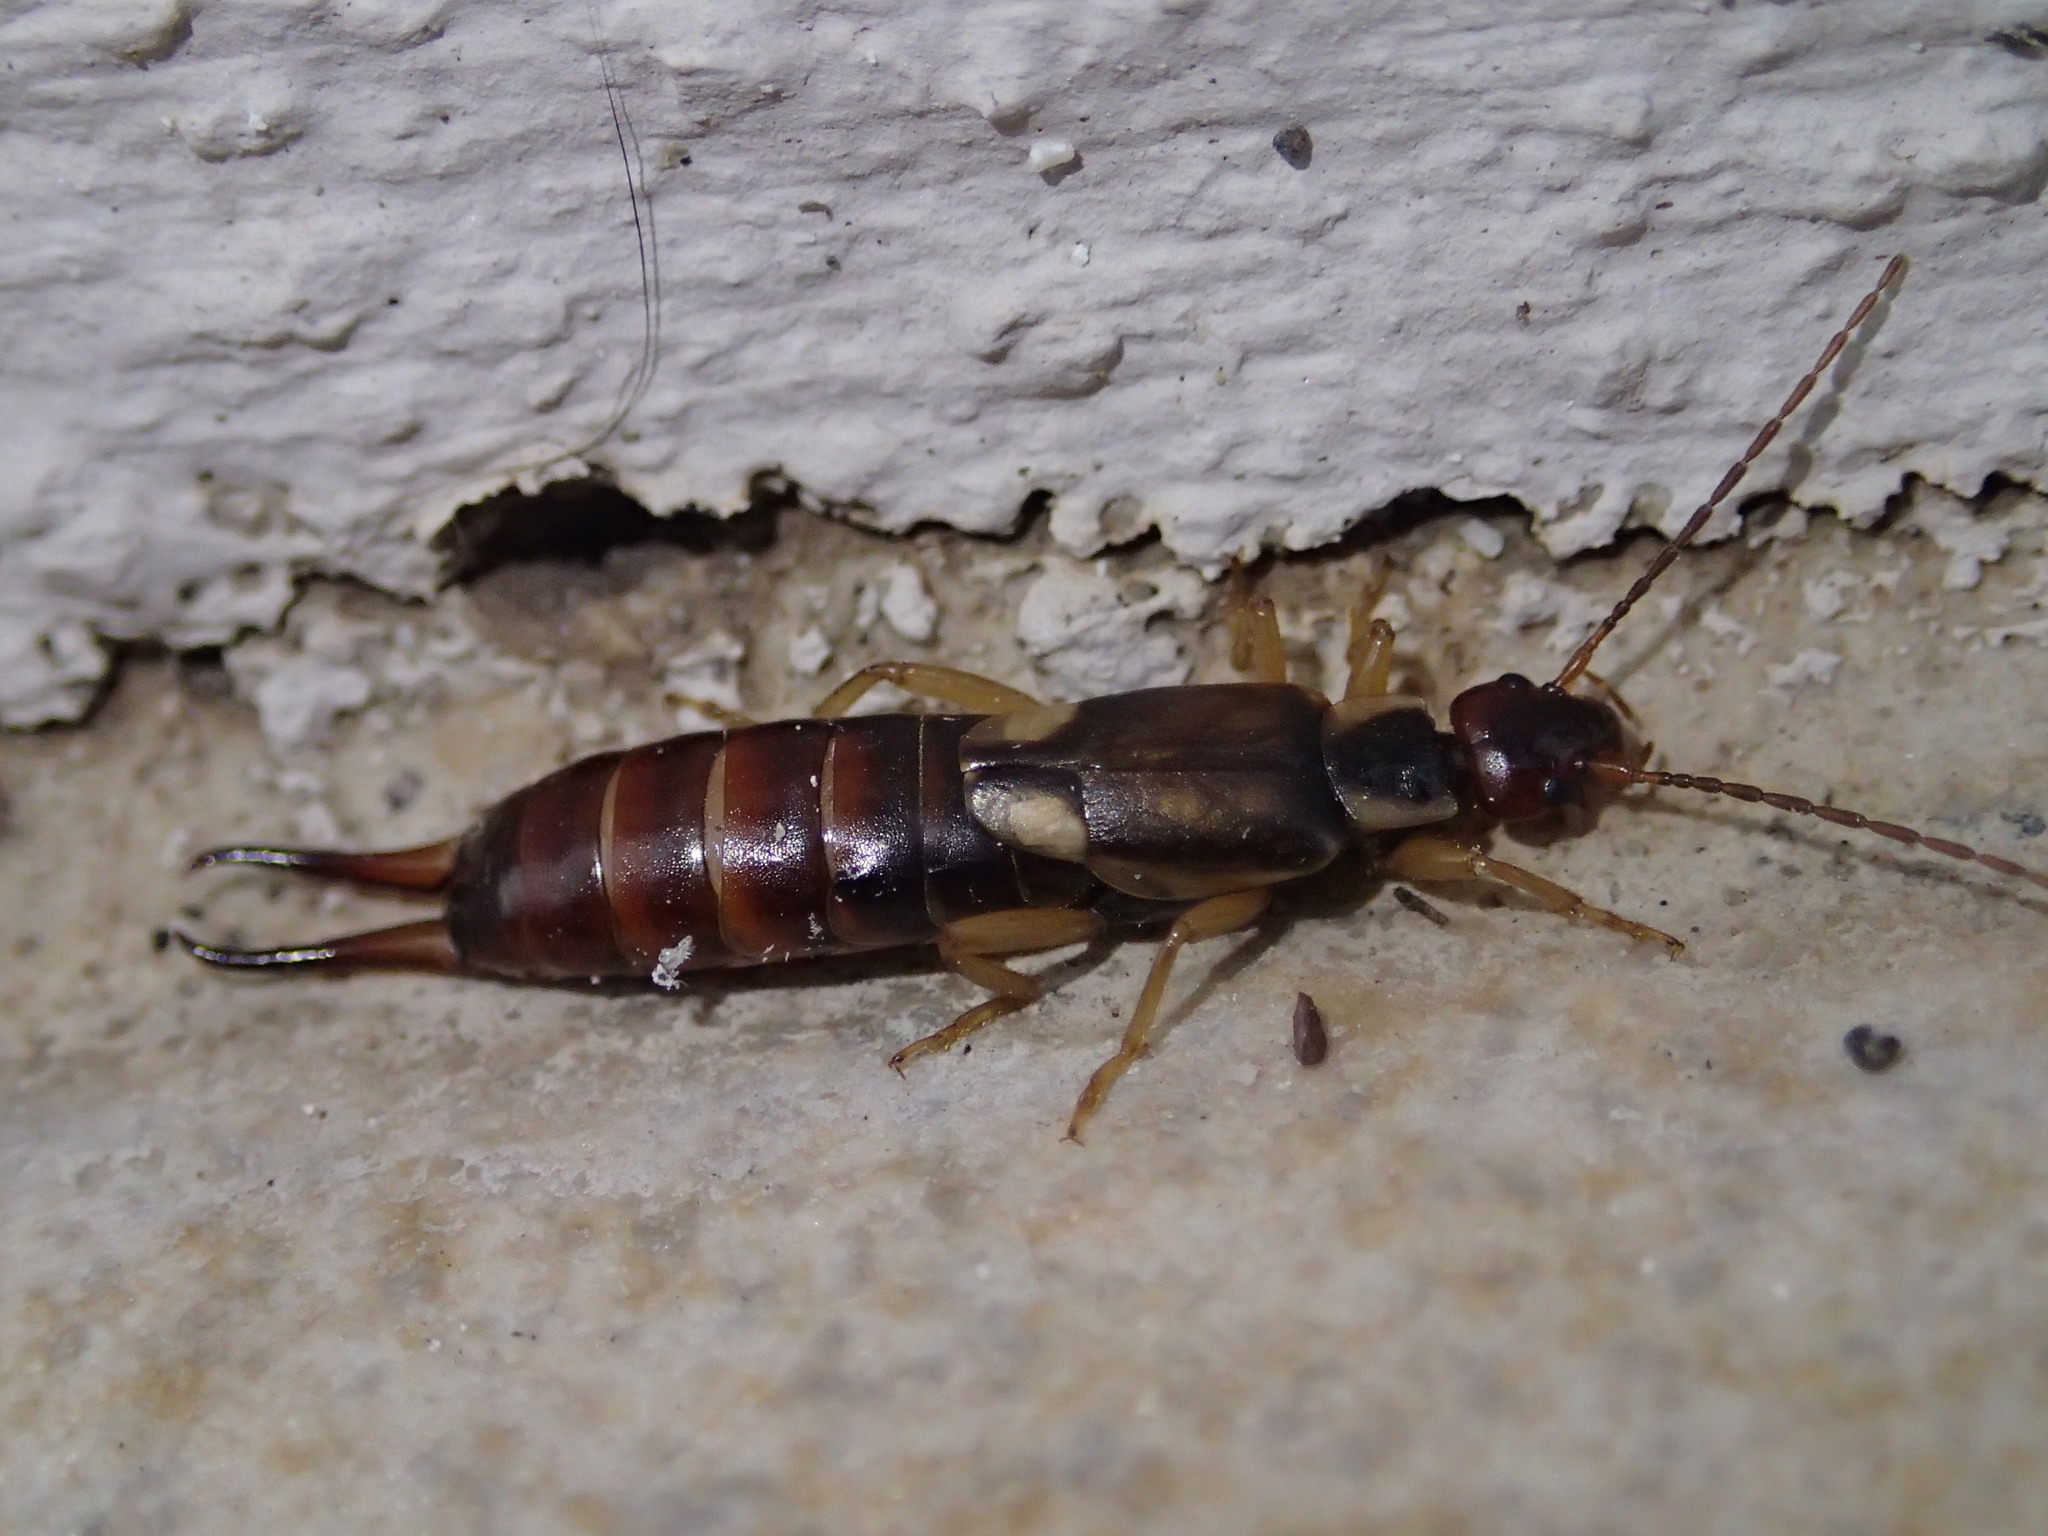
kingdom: Animalia
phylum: Arthropoda
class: Insecta
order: Dermaptera
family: Forficulidae
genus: Forficula
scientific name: Forficula
